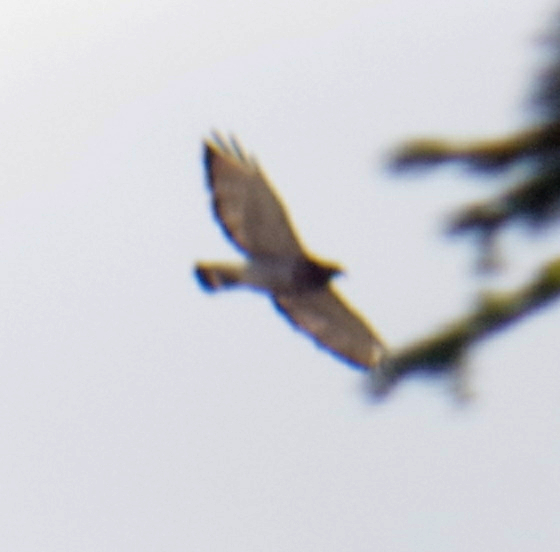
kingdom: Animalia
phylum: Chordata
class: Aves
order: Accipitriformes
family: Accipitridae
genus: Buteo
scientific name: Buteo platypterus
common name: Broad-winged hawk
